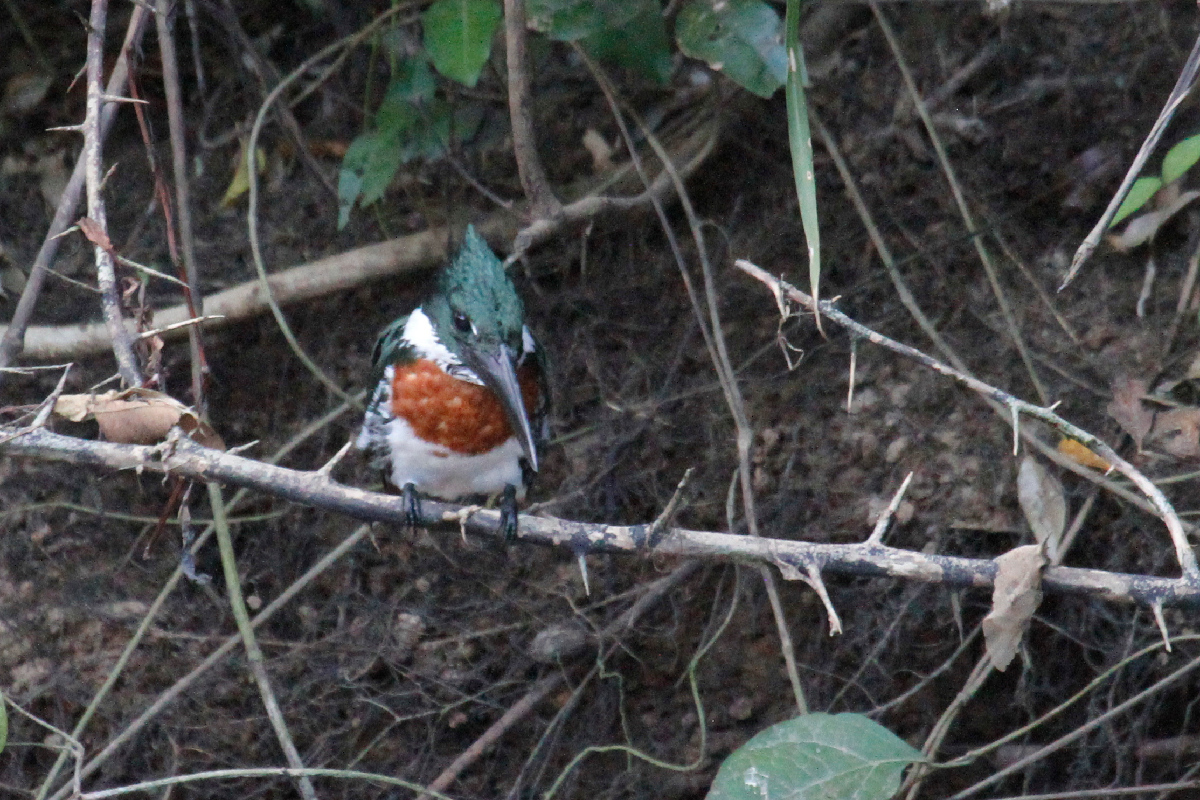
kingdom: Animalia
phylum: Chordata
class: Aves
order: Coraciiformes
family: Alcedinidae
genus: Chloroceryle
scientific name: Chloroceryle amazona
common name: Amazon kingfisher
